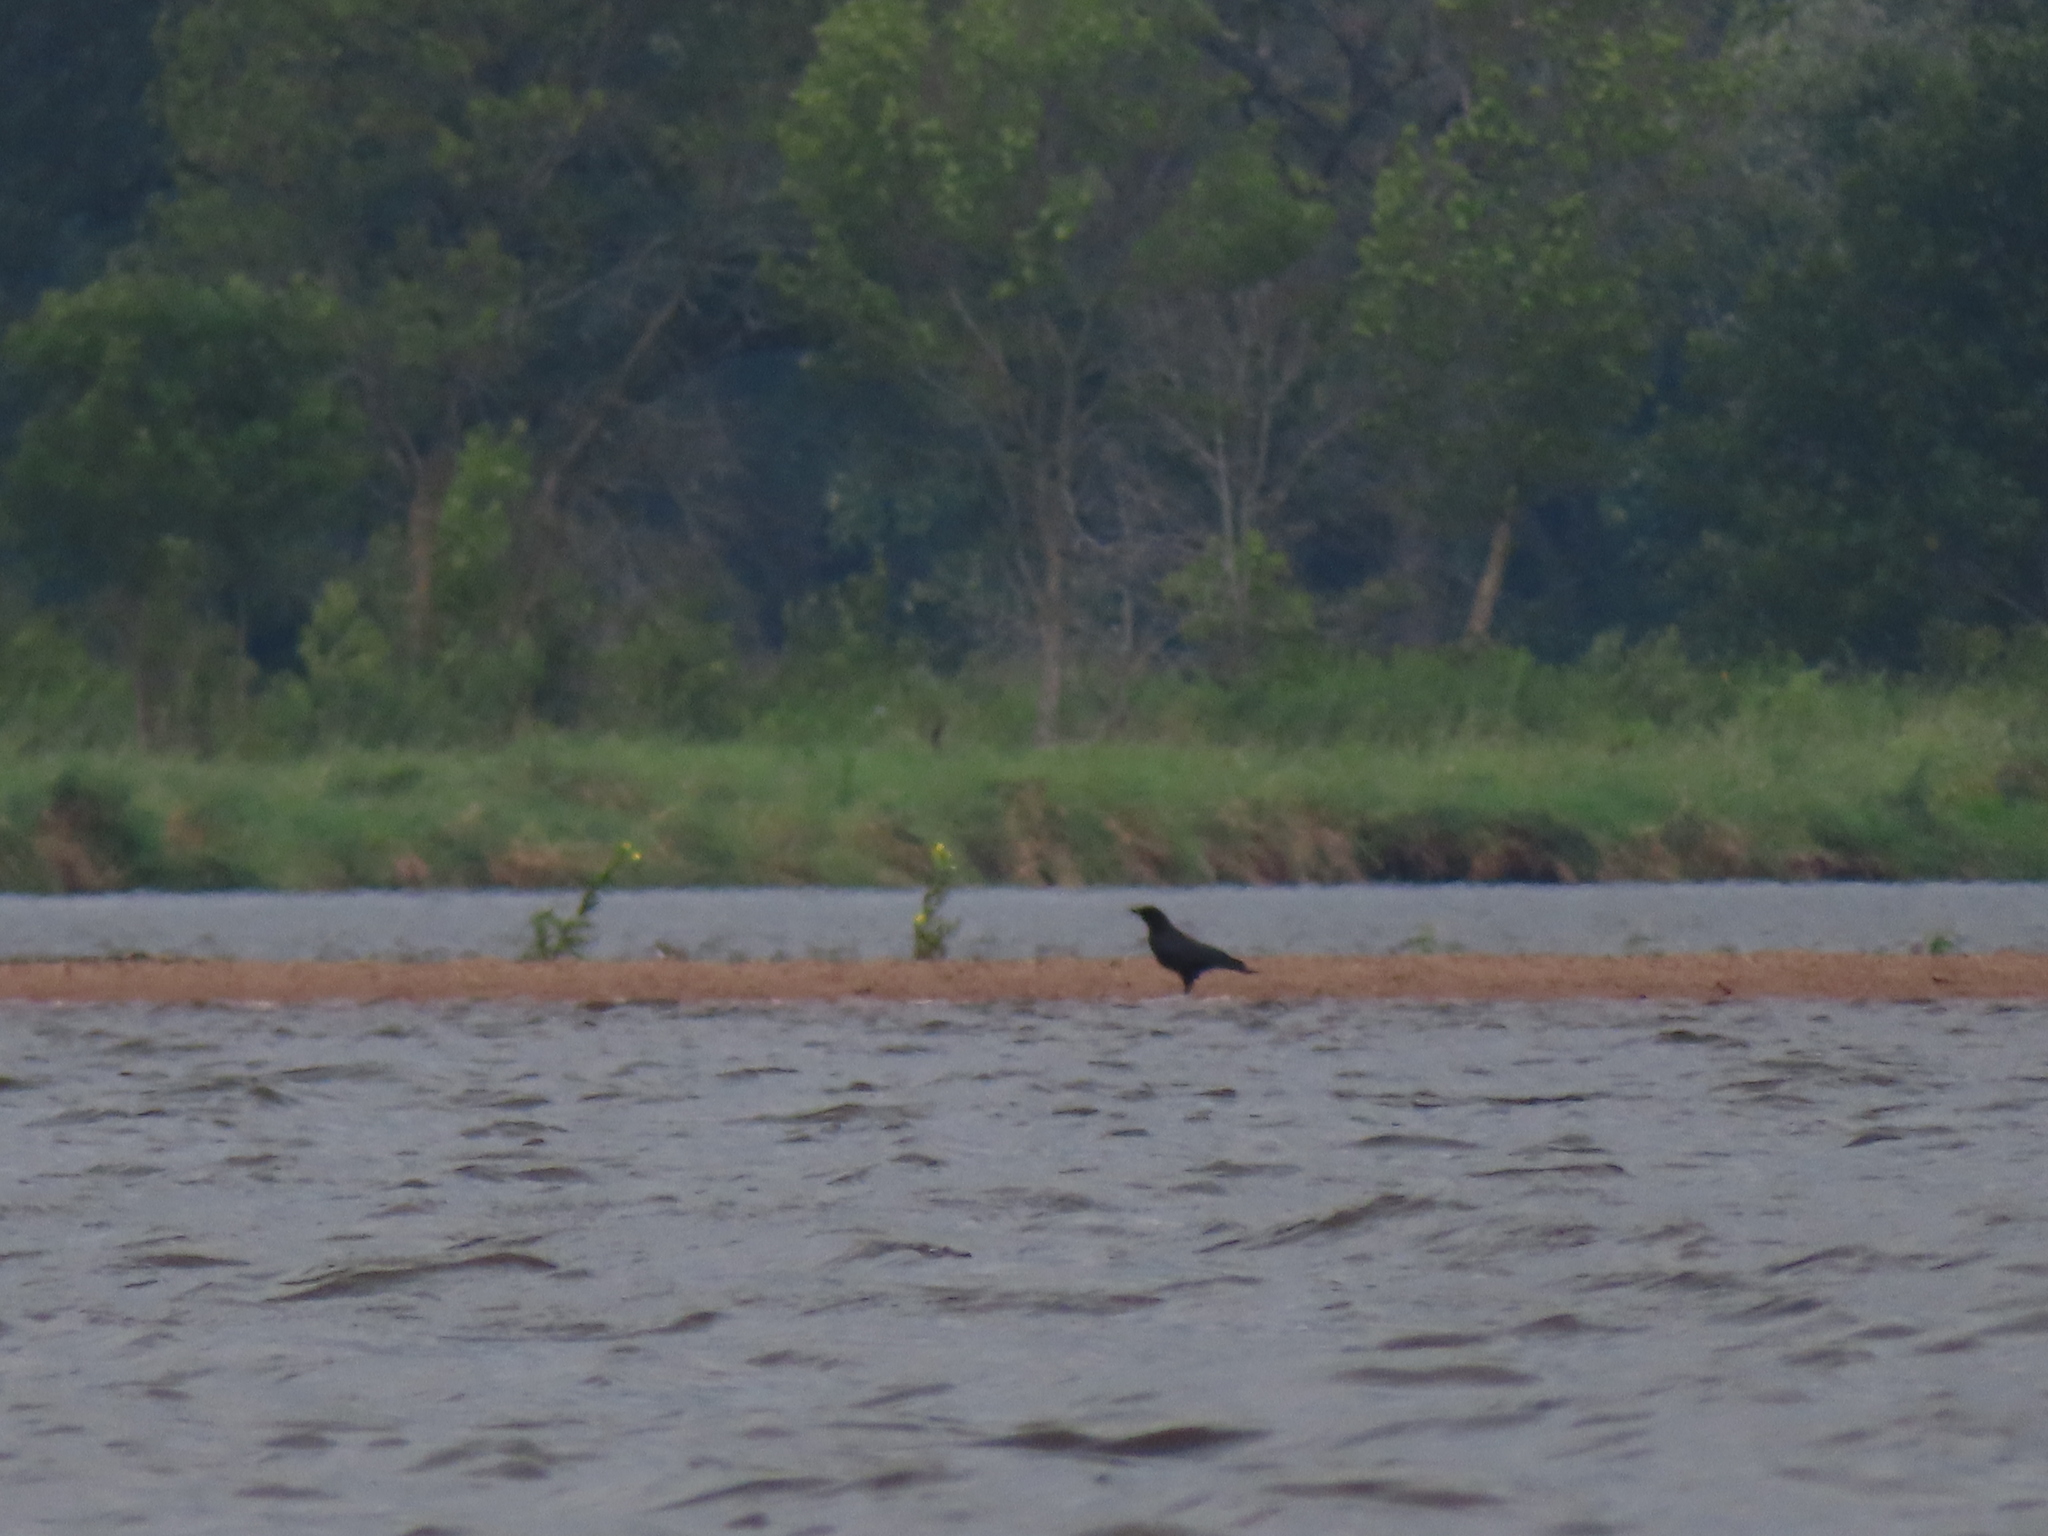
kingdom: Animalia
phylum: Chordata
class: Aves
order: Passeriformes
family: Corvidae
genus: Corvus
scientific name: Corvus brachyrhynchos
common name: American crow
